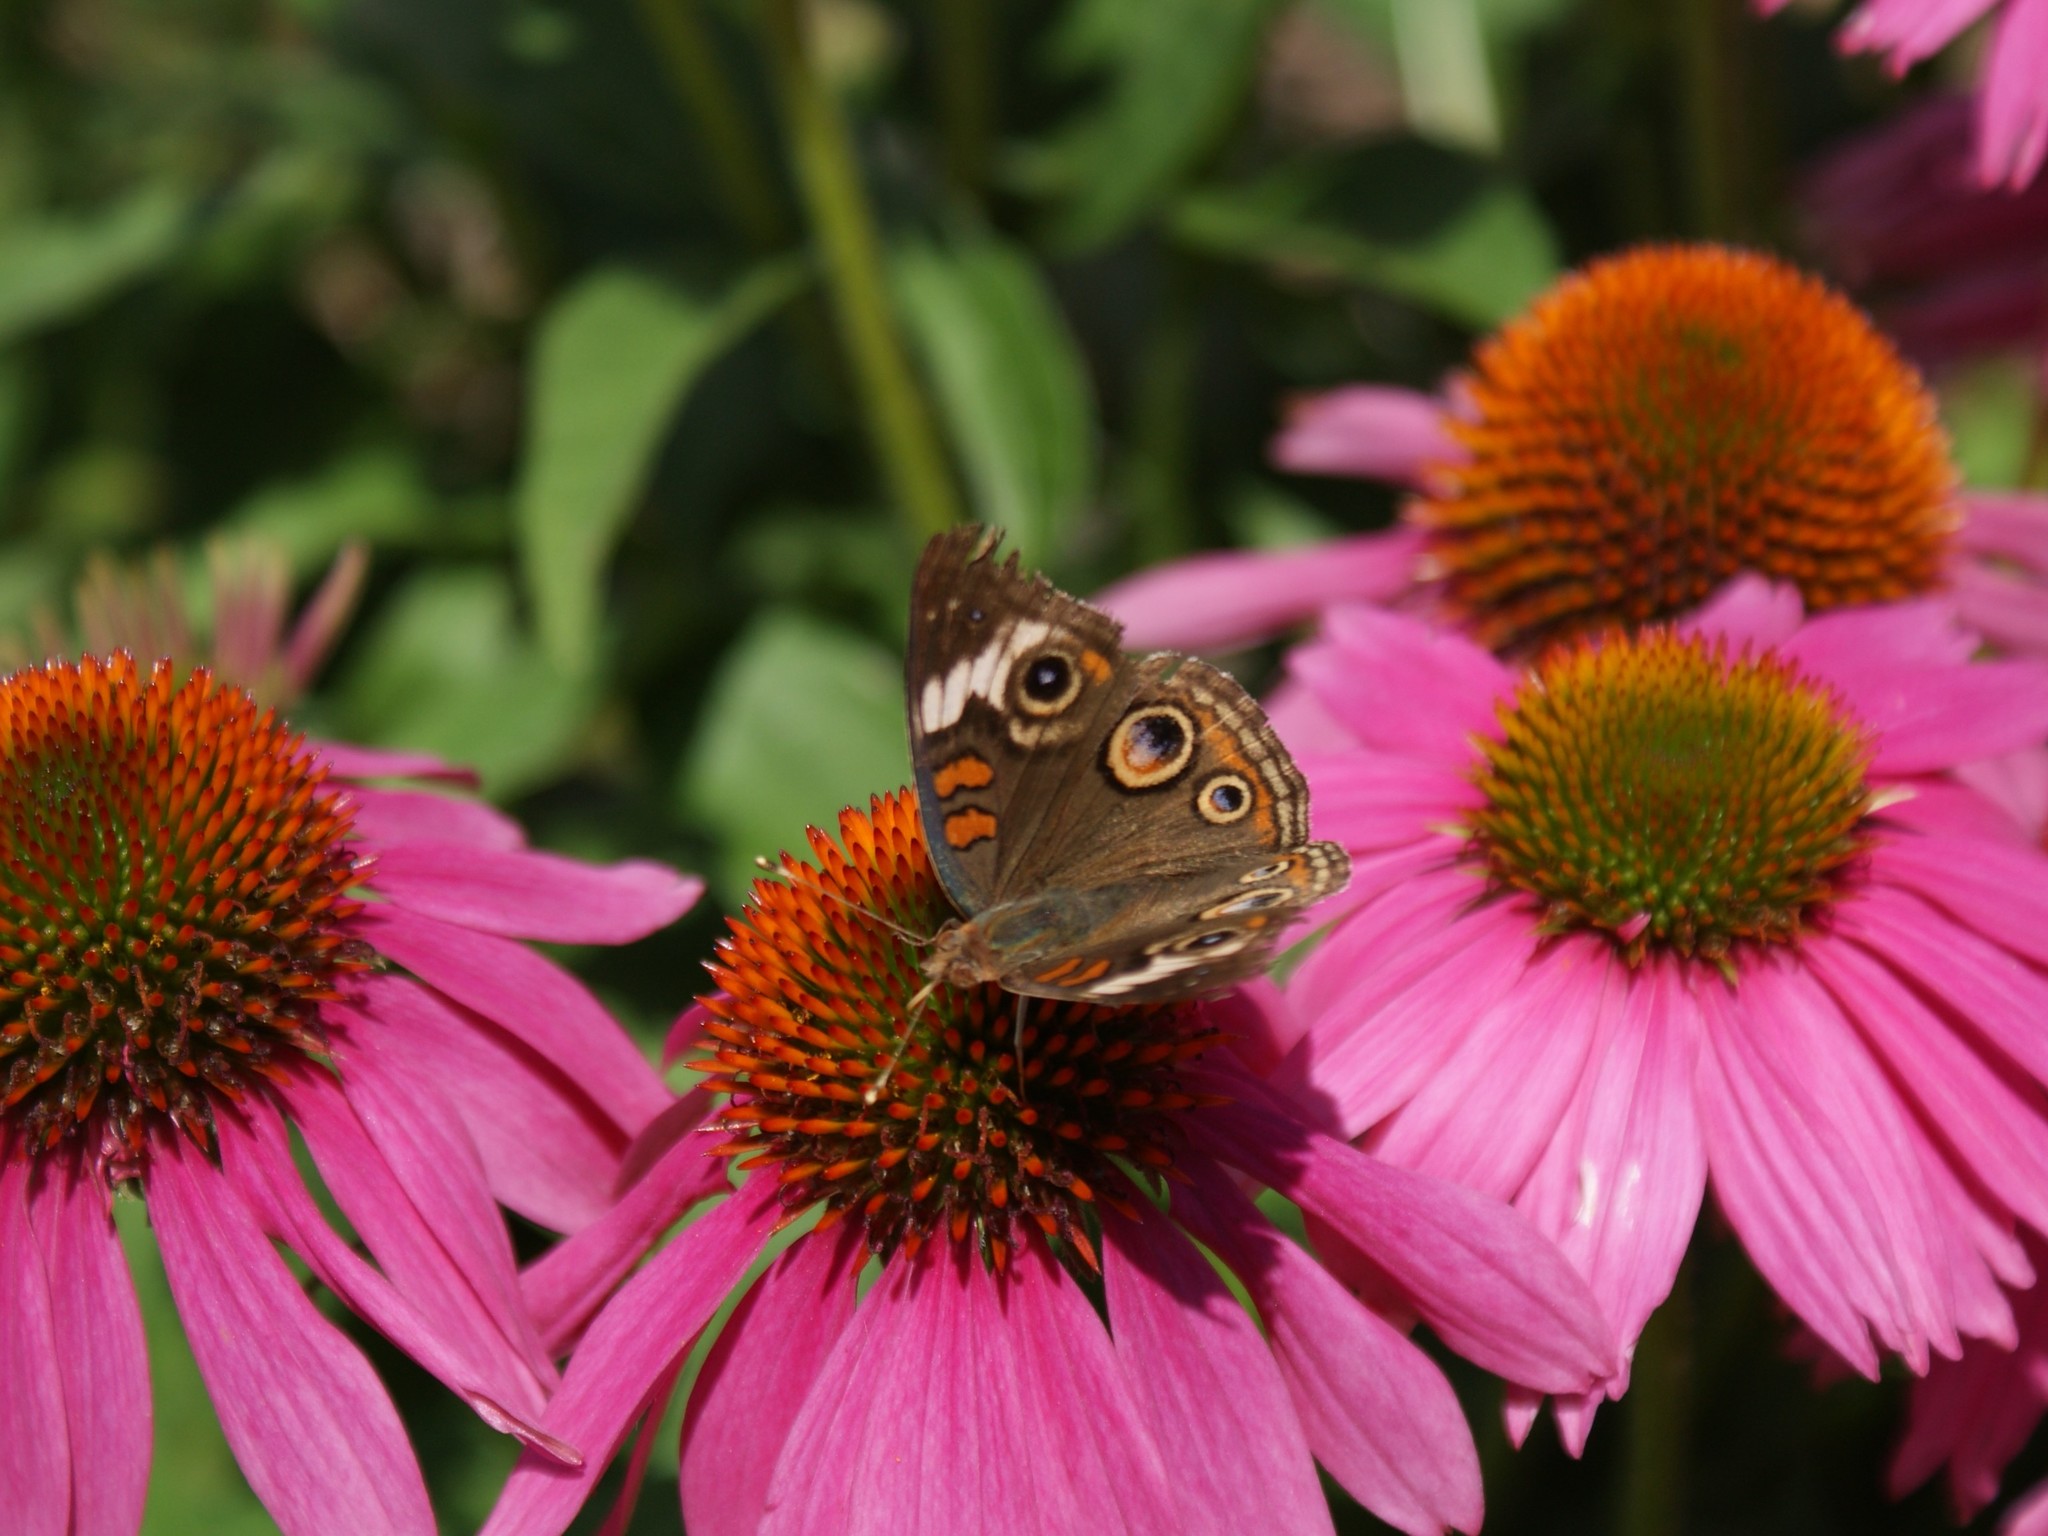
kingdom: Animalia
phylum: Arthropoda
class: Insecta
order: Lepidoptera
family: Nymphalidae
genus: Junonia
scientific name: Junonia coenia
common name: Common buckeye
